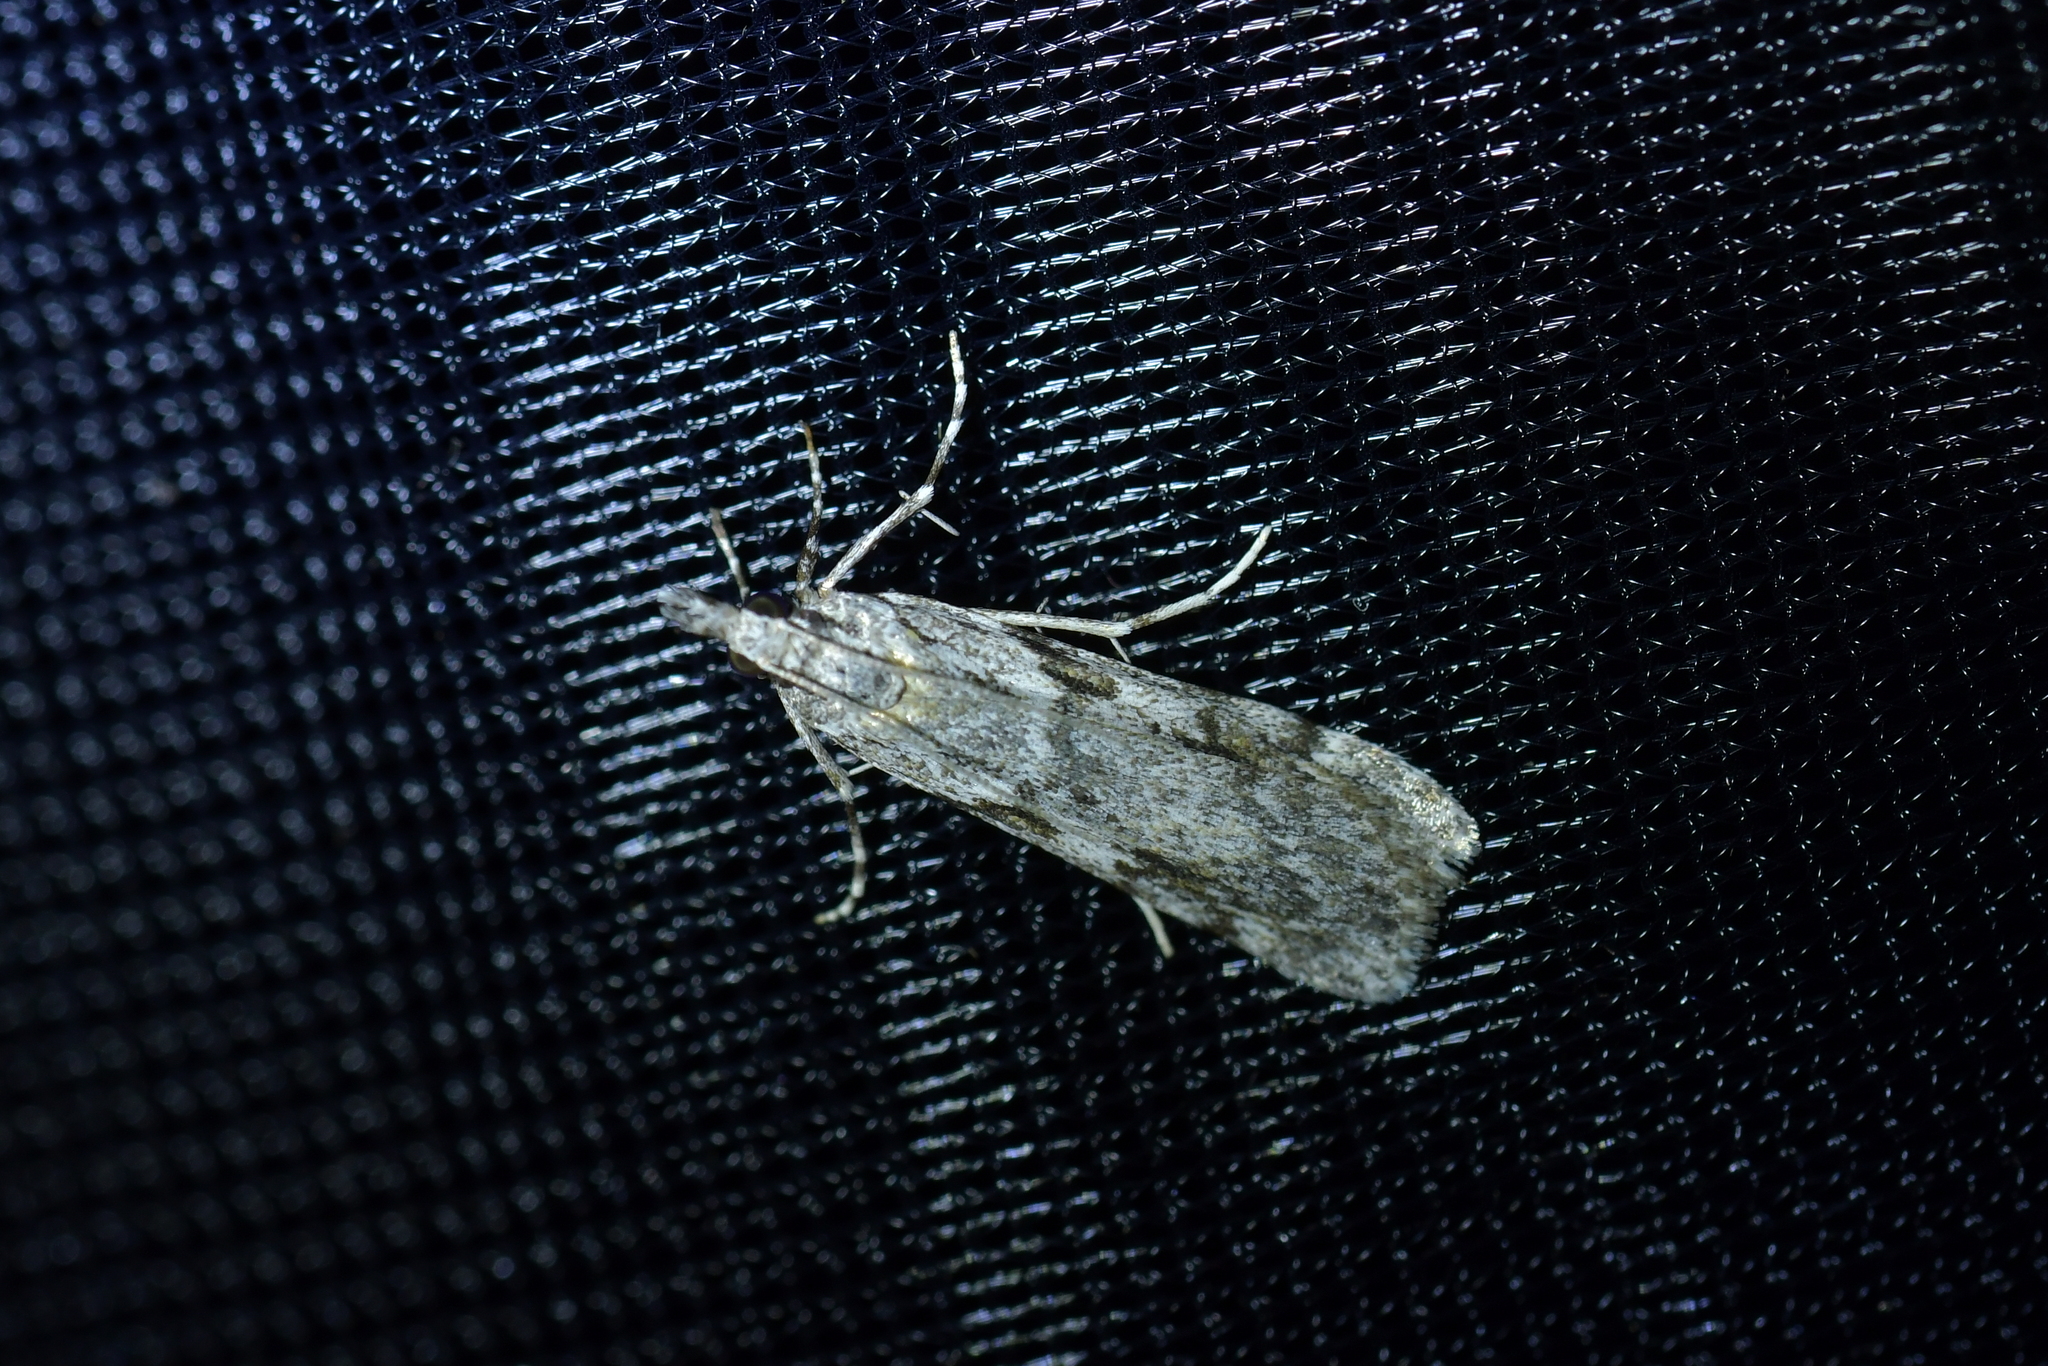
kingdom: Animalia
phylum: Arthropoda
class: Insecta
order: Lepidoptera
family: Crambidae
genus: Scoparia
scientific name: Scoparia halopis
